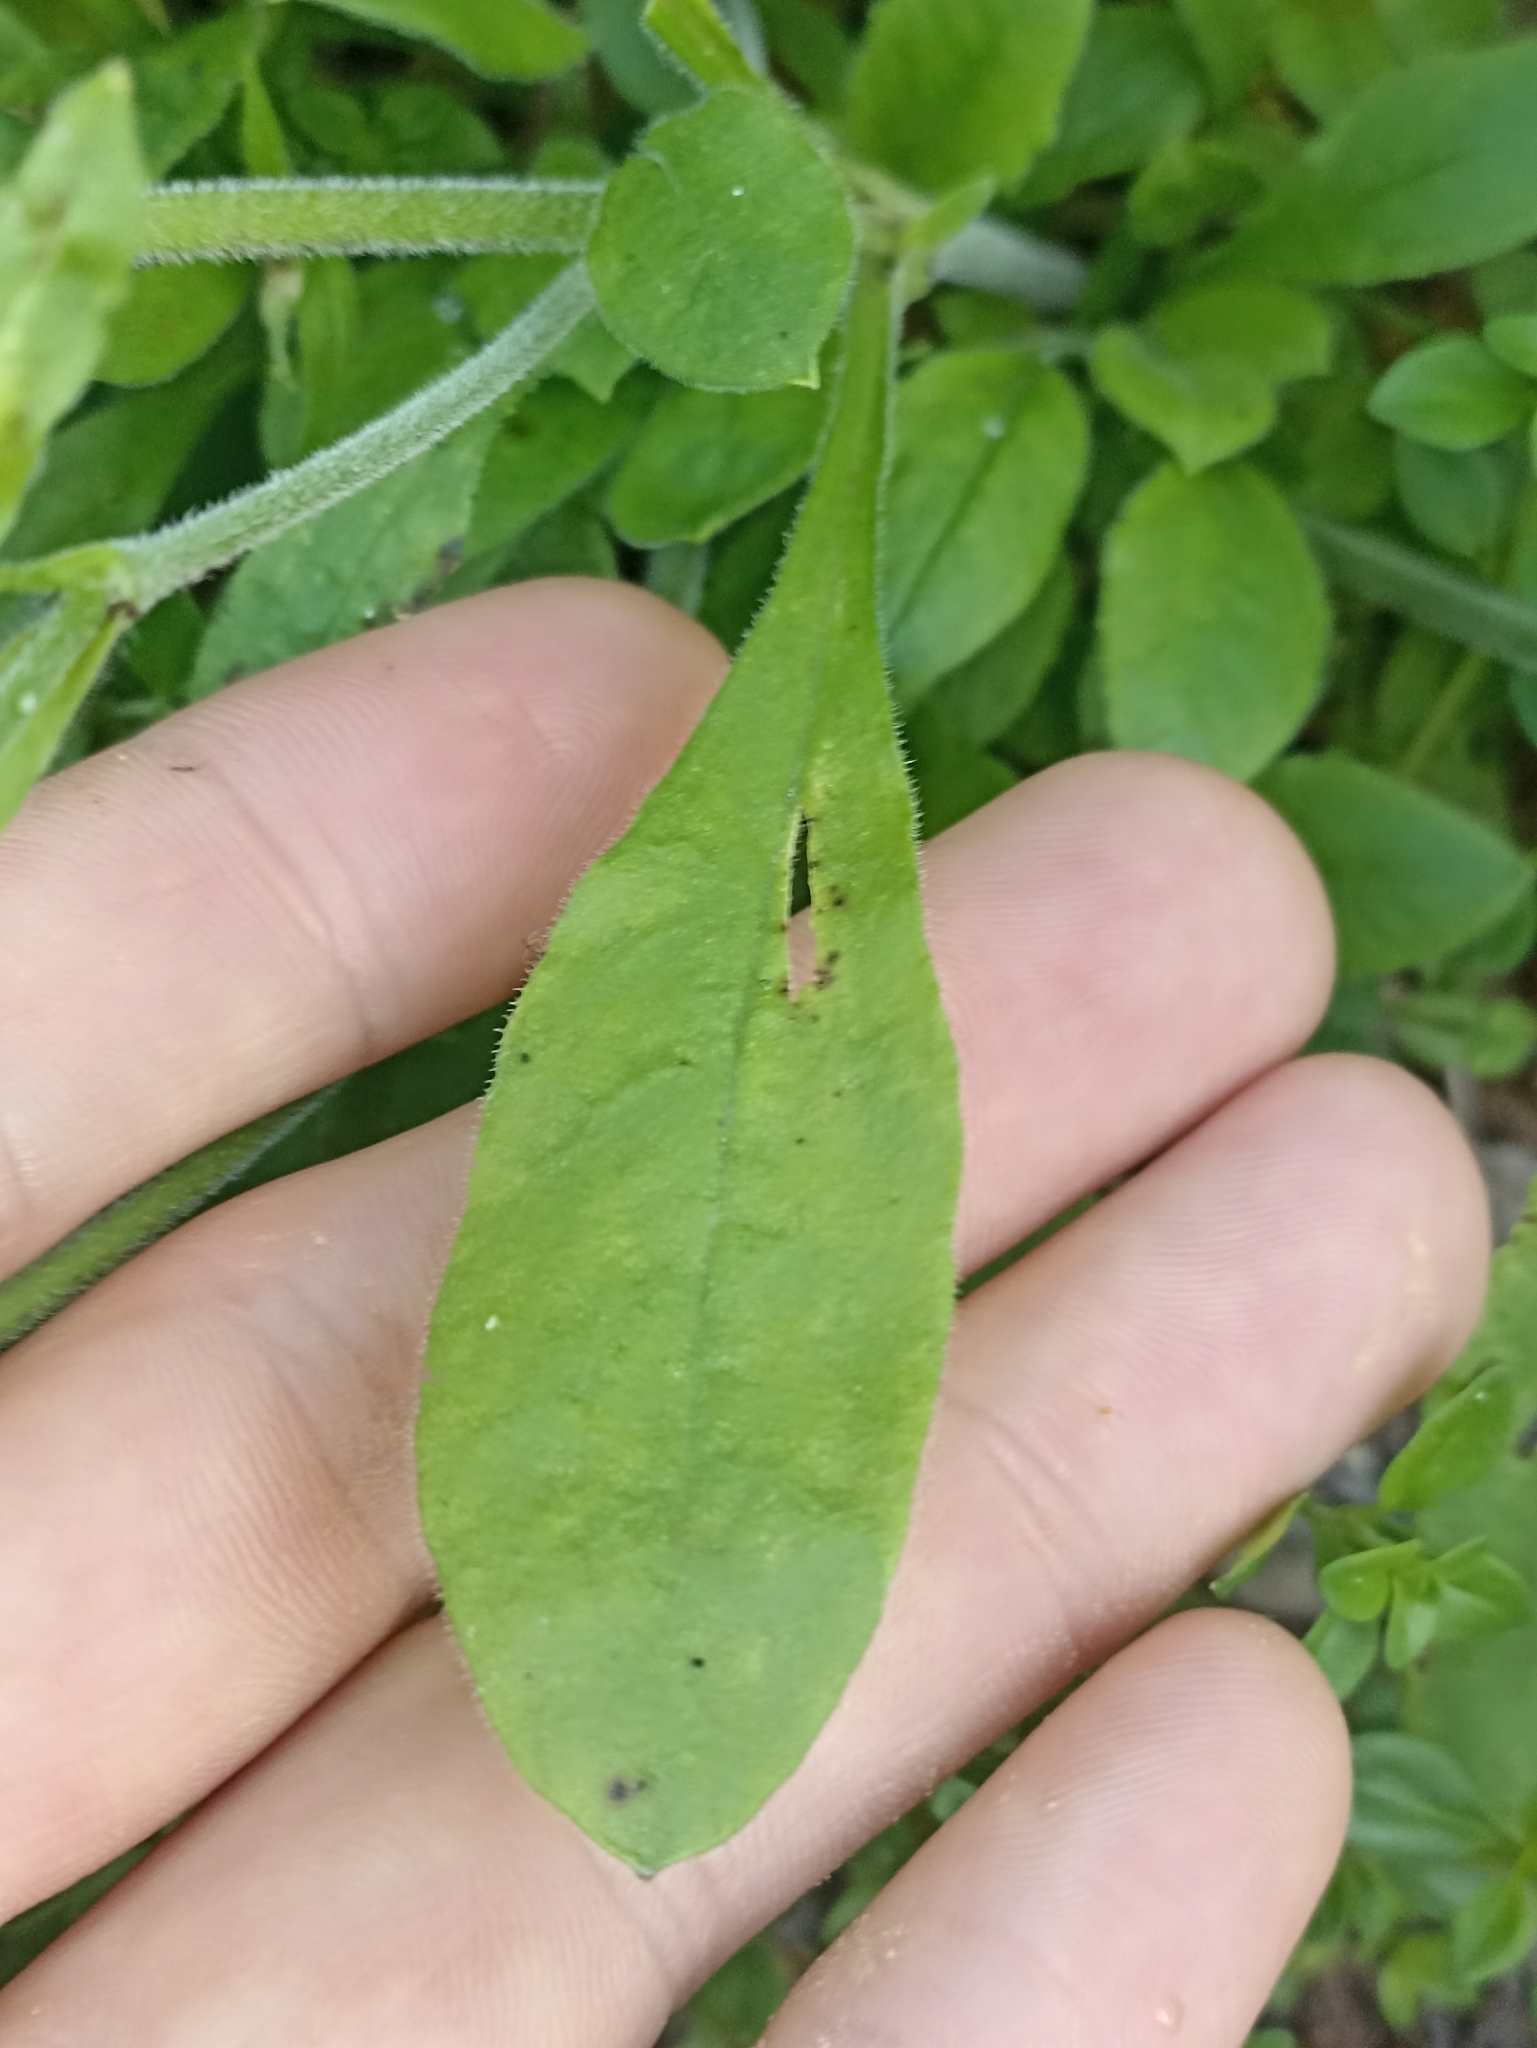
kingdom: Plantae
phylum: Tracheophyta
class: Magnoliopsida
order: Caryophyllales
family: Caryophyllaceae
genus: Silene
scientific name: Silene nutans
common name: Nottingham catchfly
